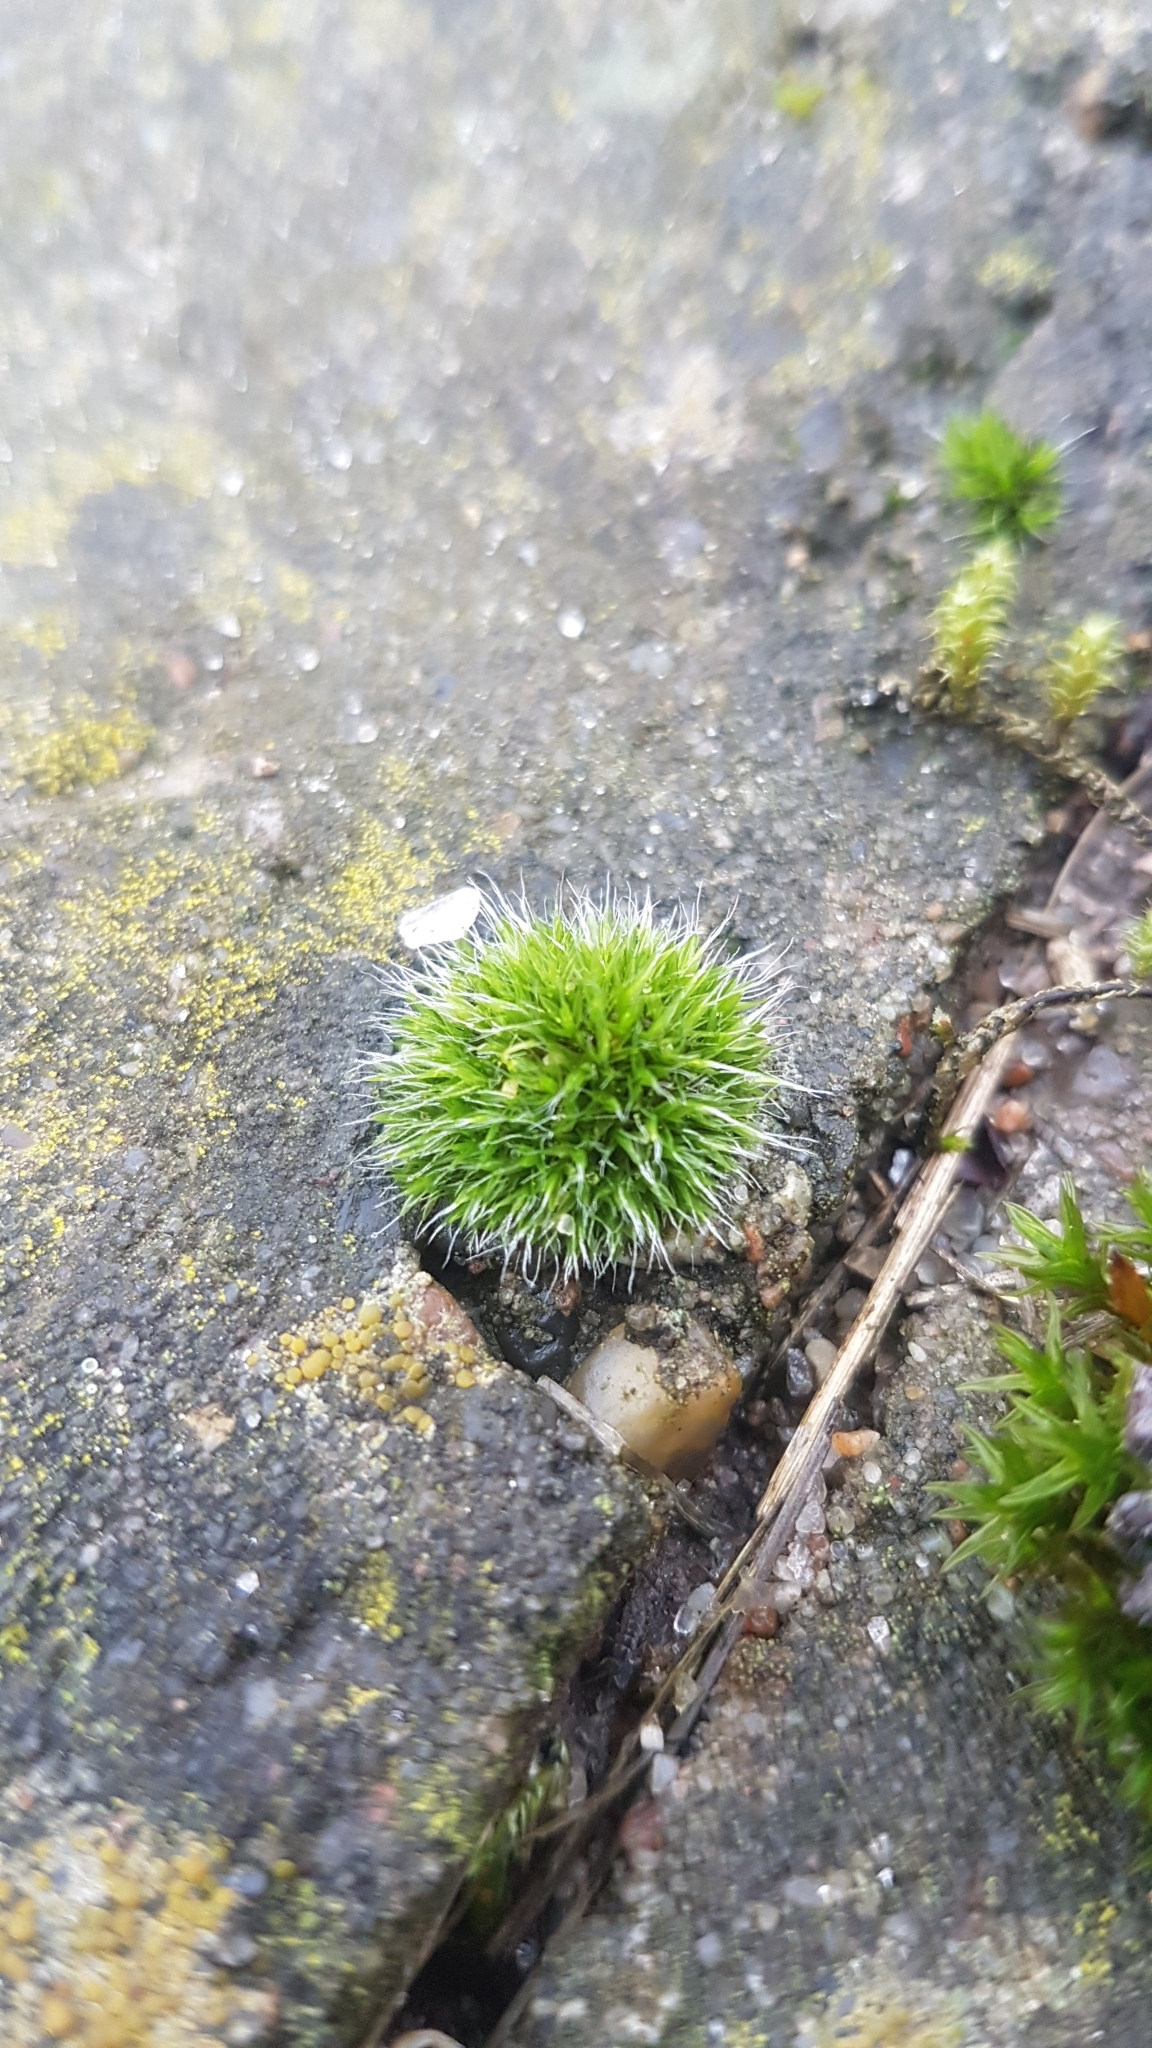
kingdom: Plantae
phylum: Bryophyta
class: Bryopsida
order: Grimmiales
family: Grimmiaceae
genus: Grimmia
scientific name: Grimmia pulvinata
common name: Grey-cushioned grimmia
